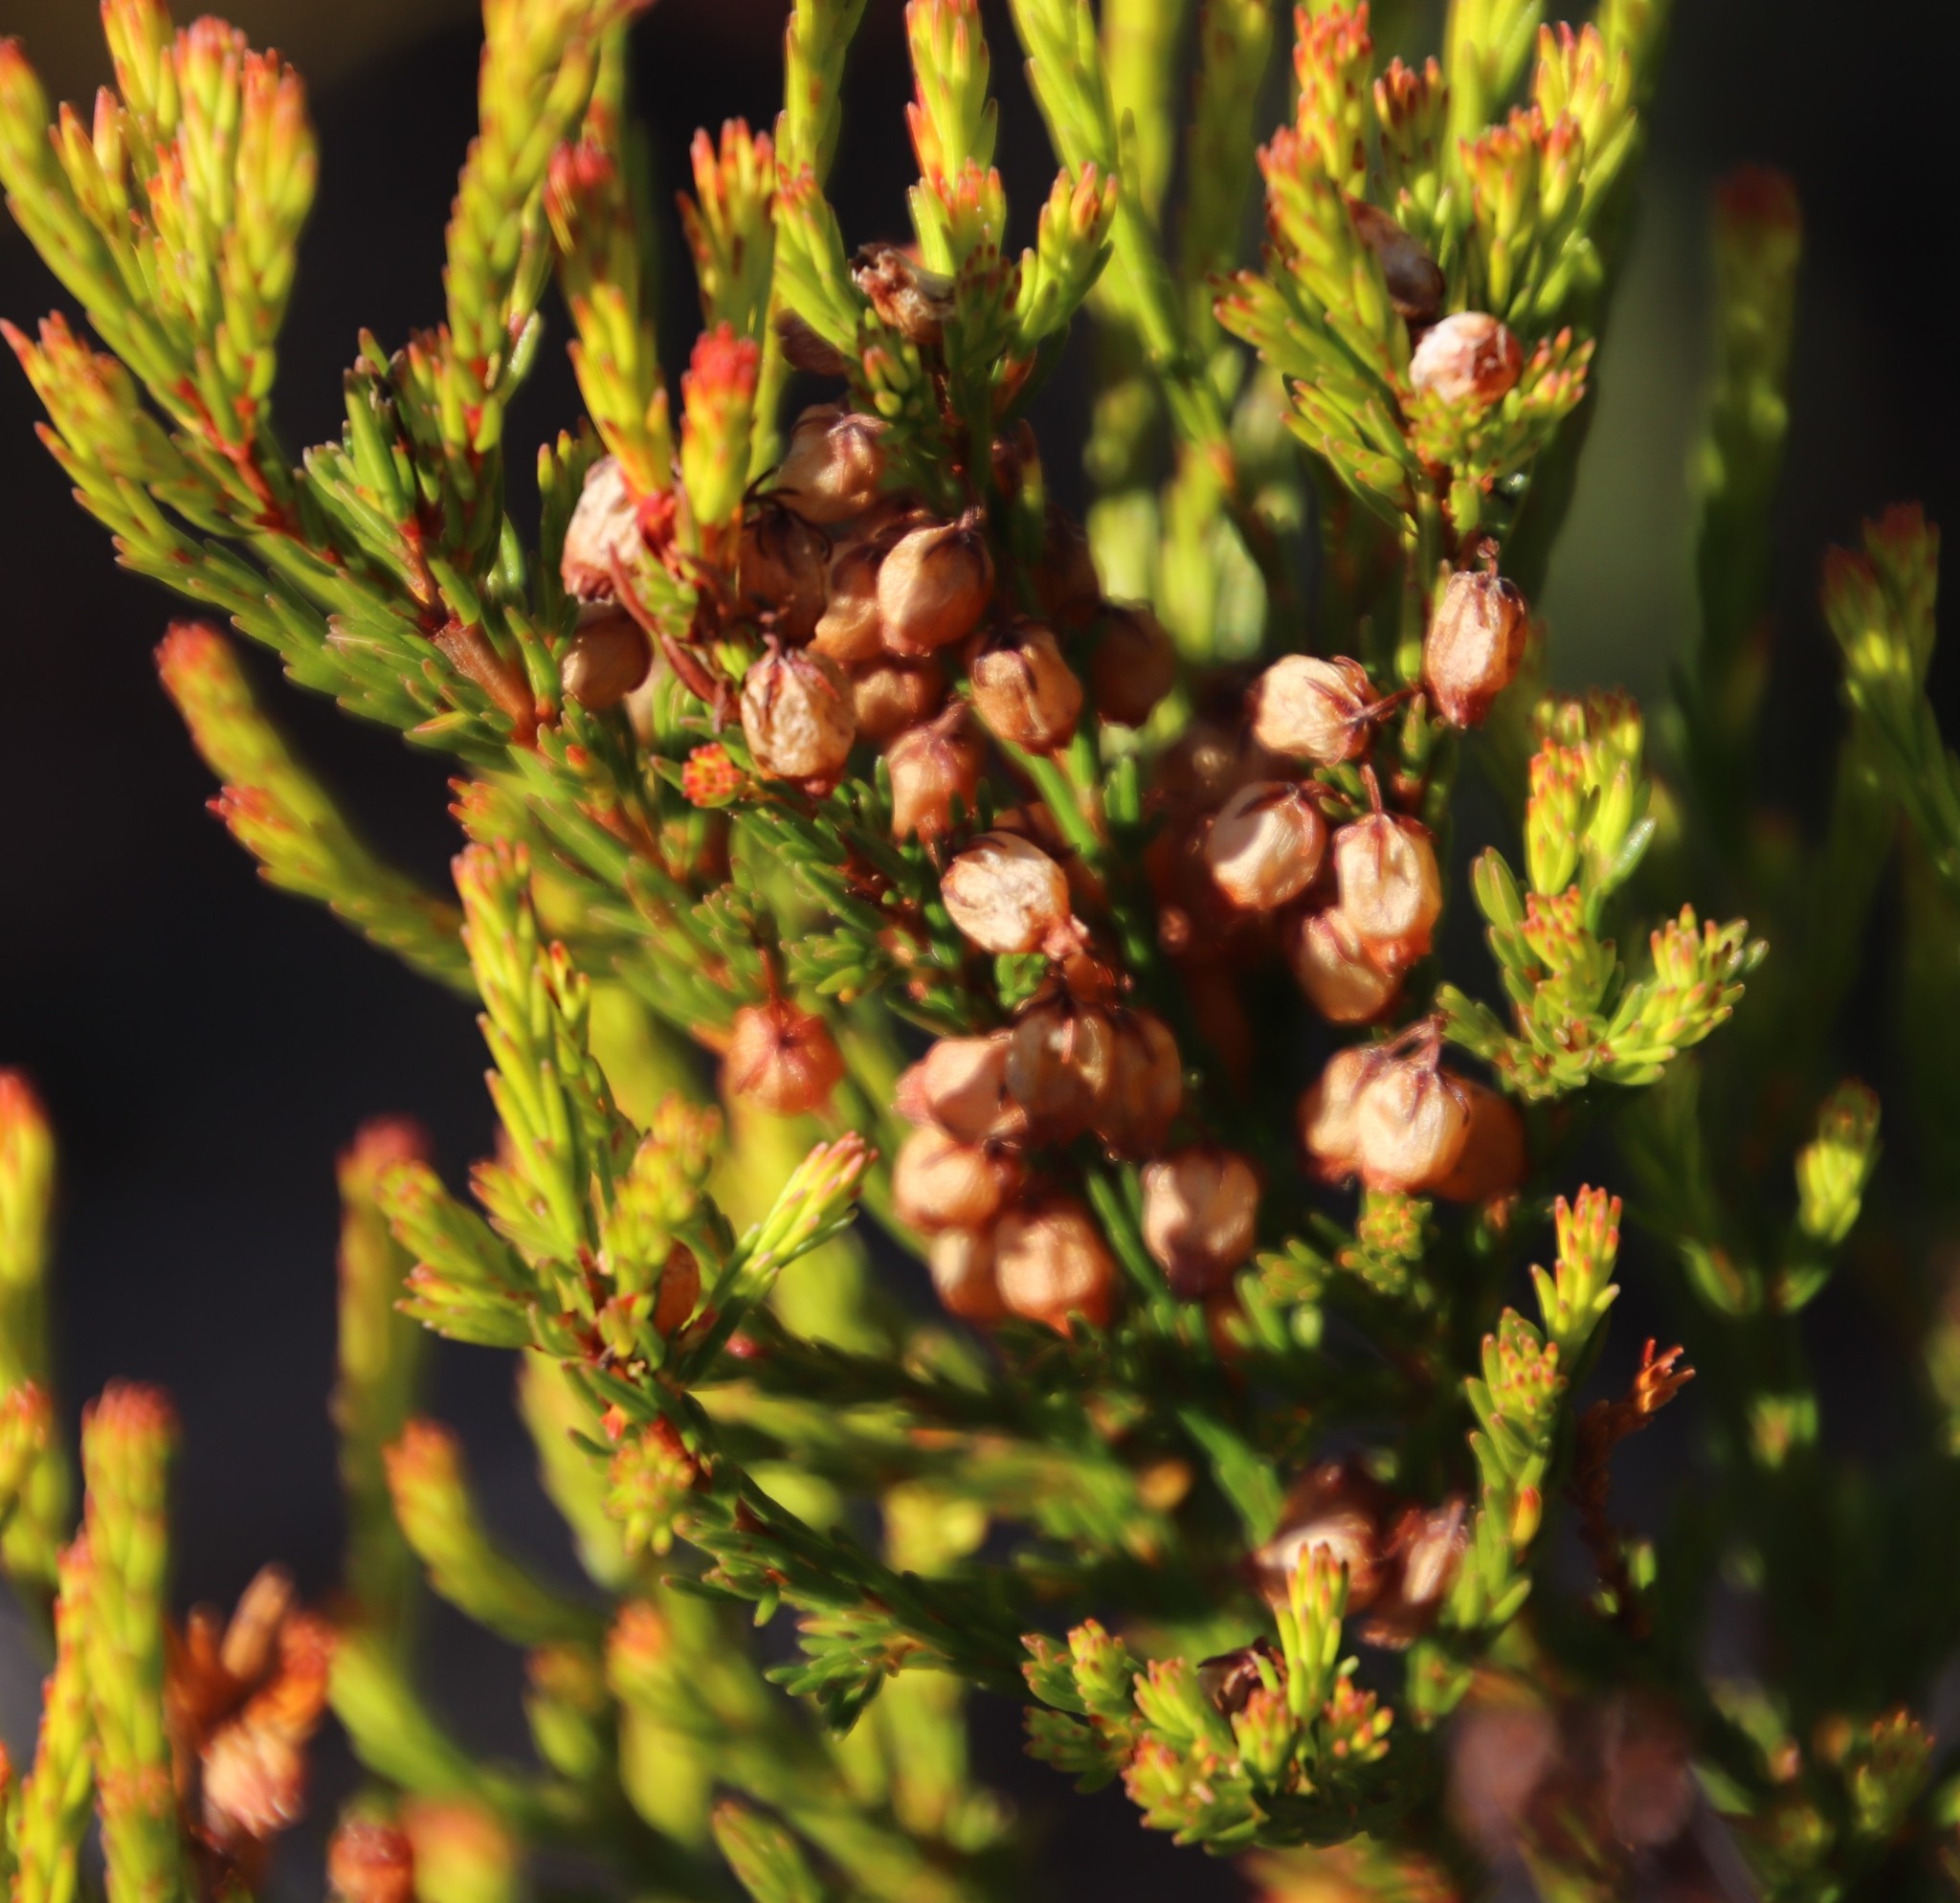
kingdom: Plantae
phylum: Tracheophyta
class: Magnoliopsida
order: Ericales
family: Ericaceae
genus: Erica
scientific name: Erica multumbellifera
